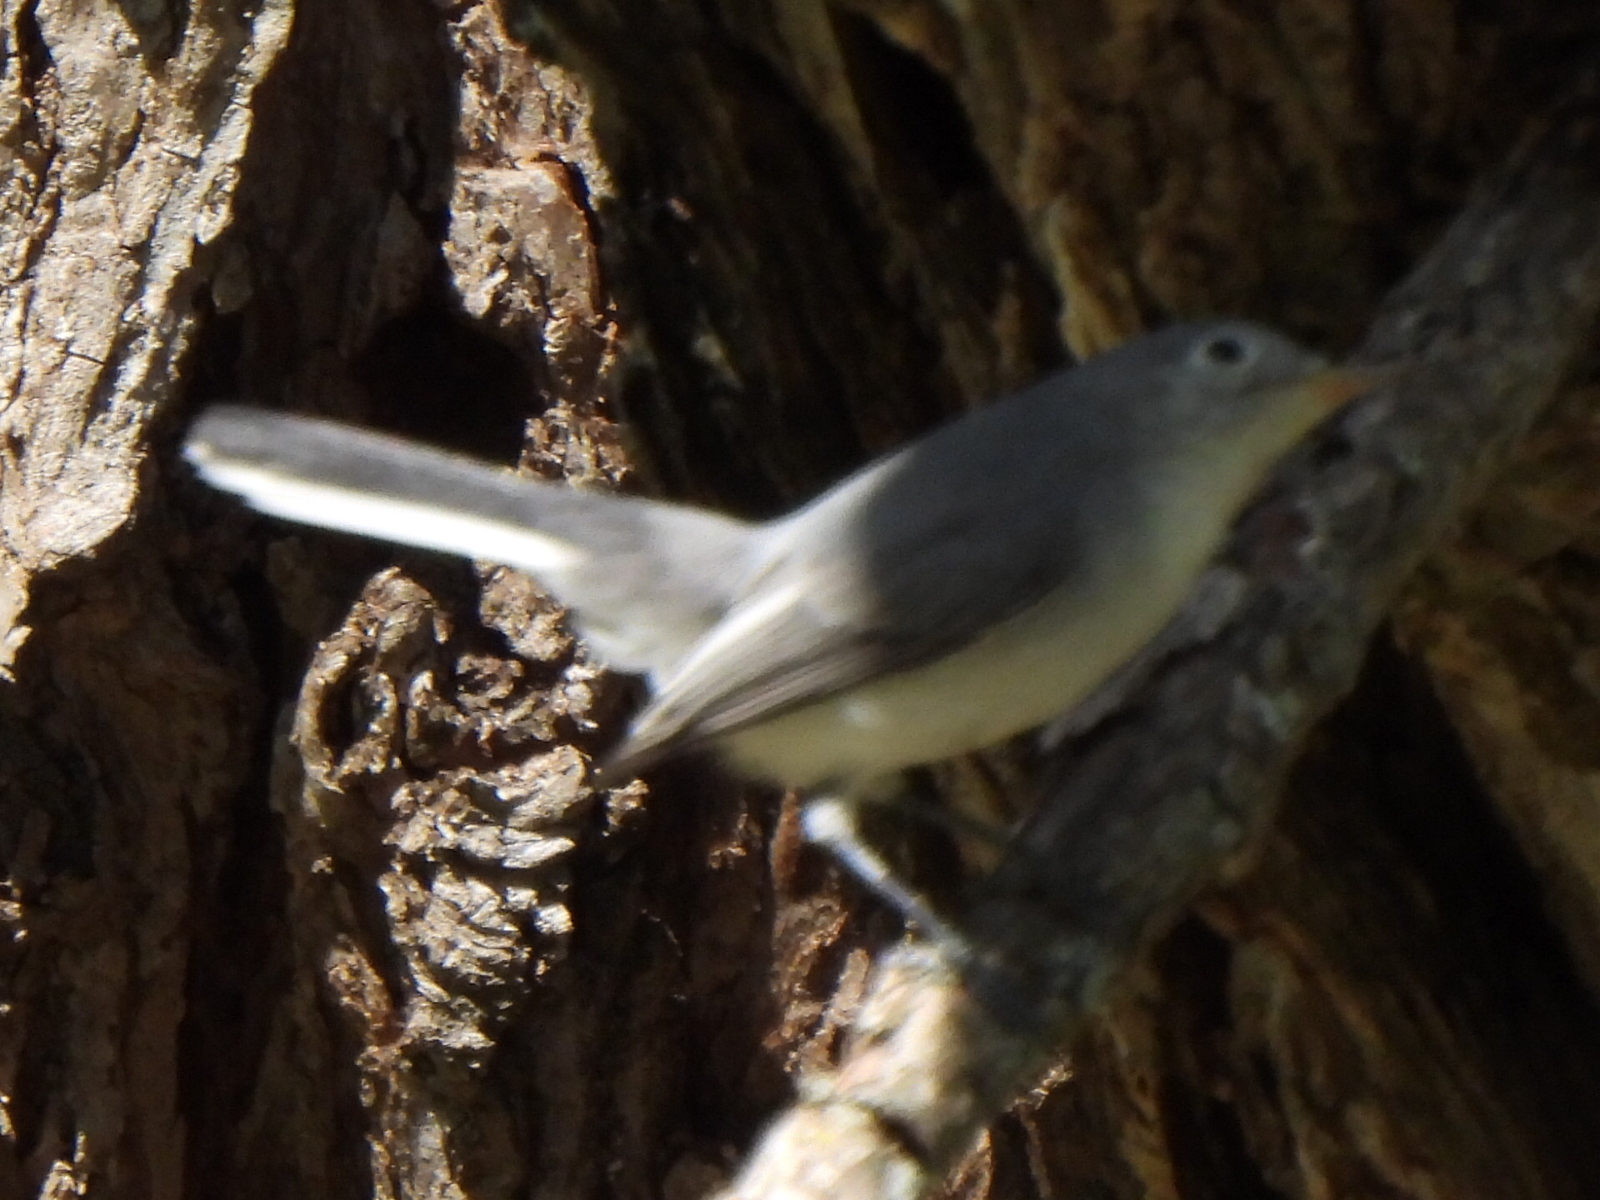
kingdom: Animalia
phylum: Chordata
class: Aves
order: Passeriformes
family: Polioptilidae
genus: Polioptila
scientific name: Polioptila caerulea
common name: Blue-gray gnatcatcher
